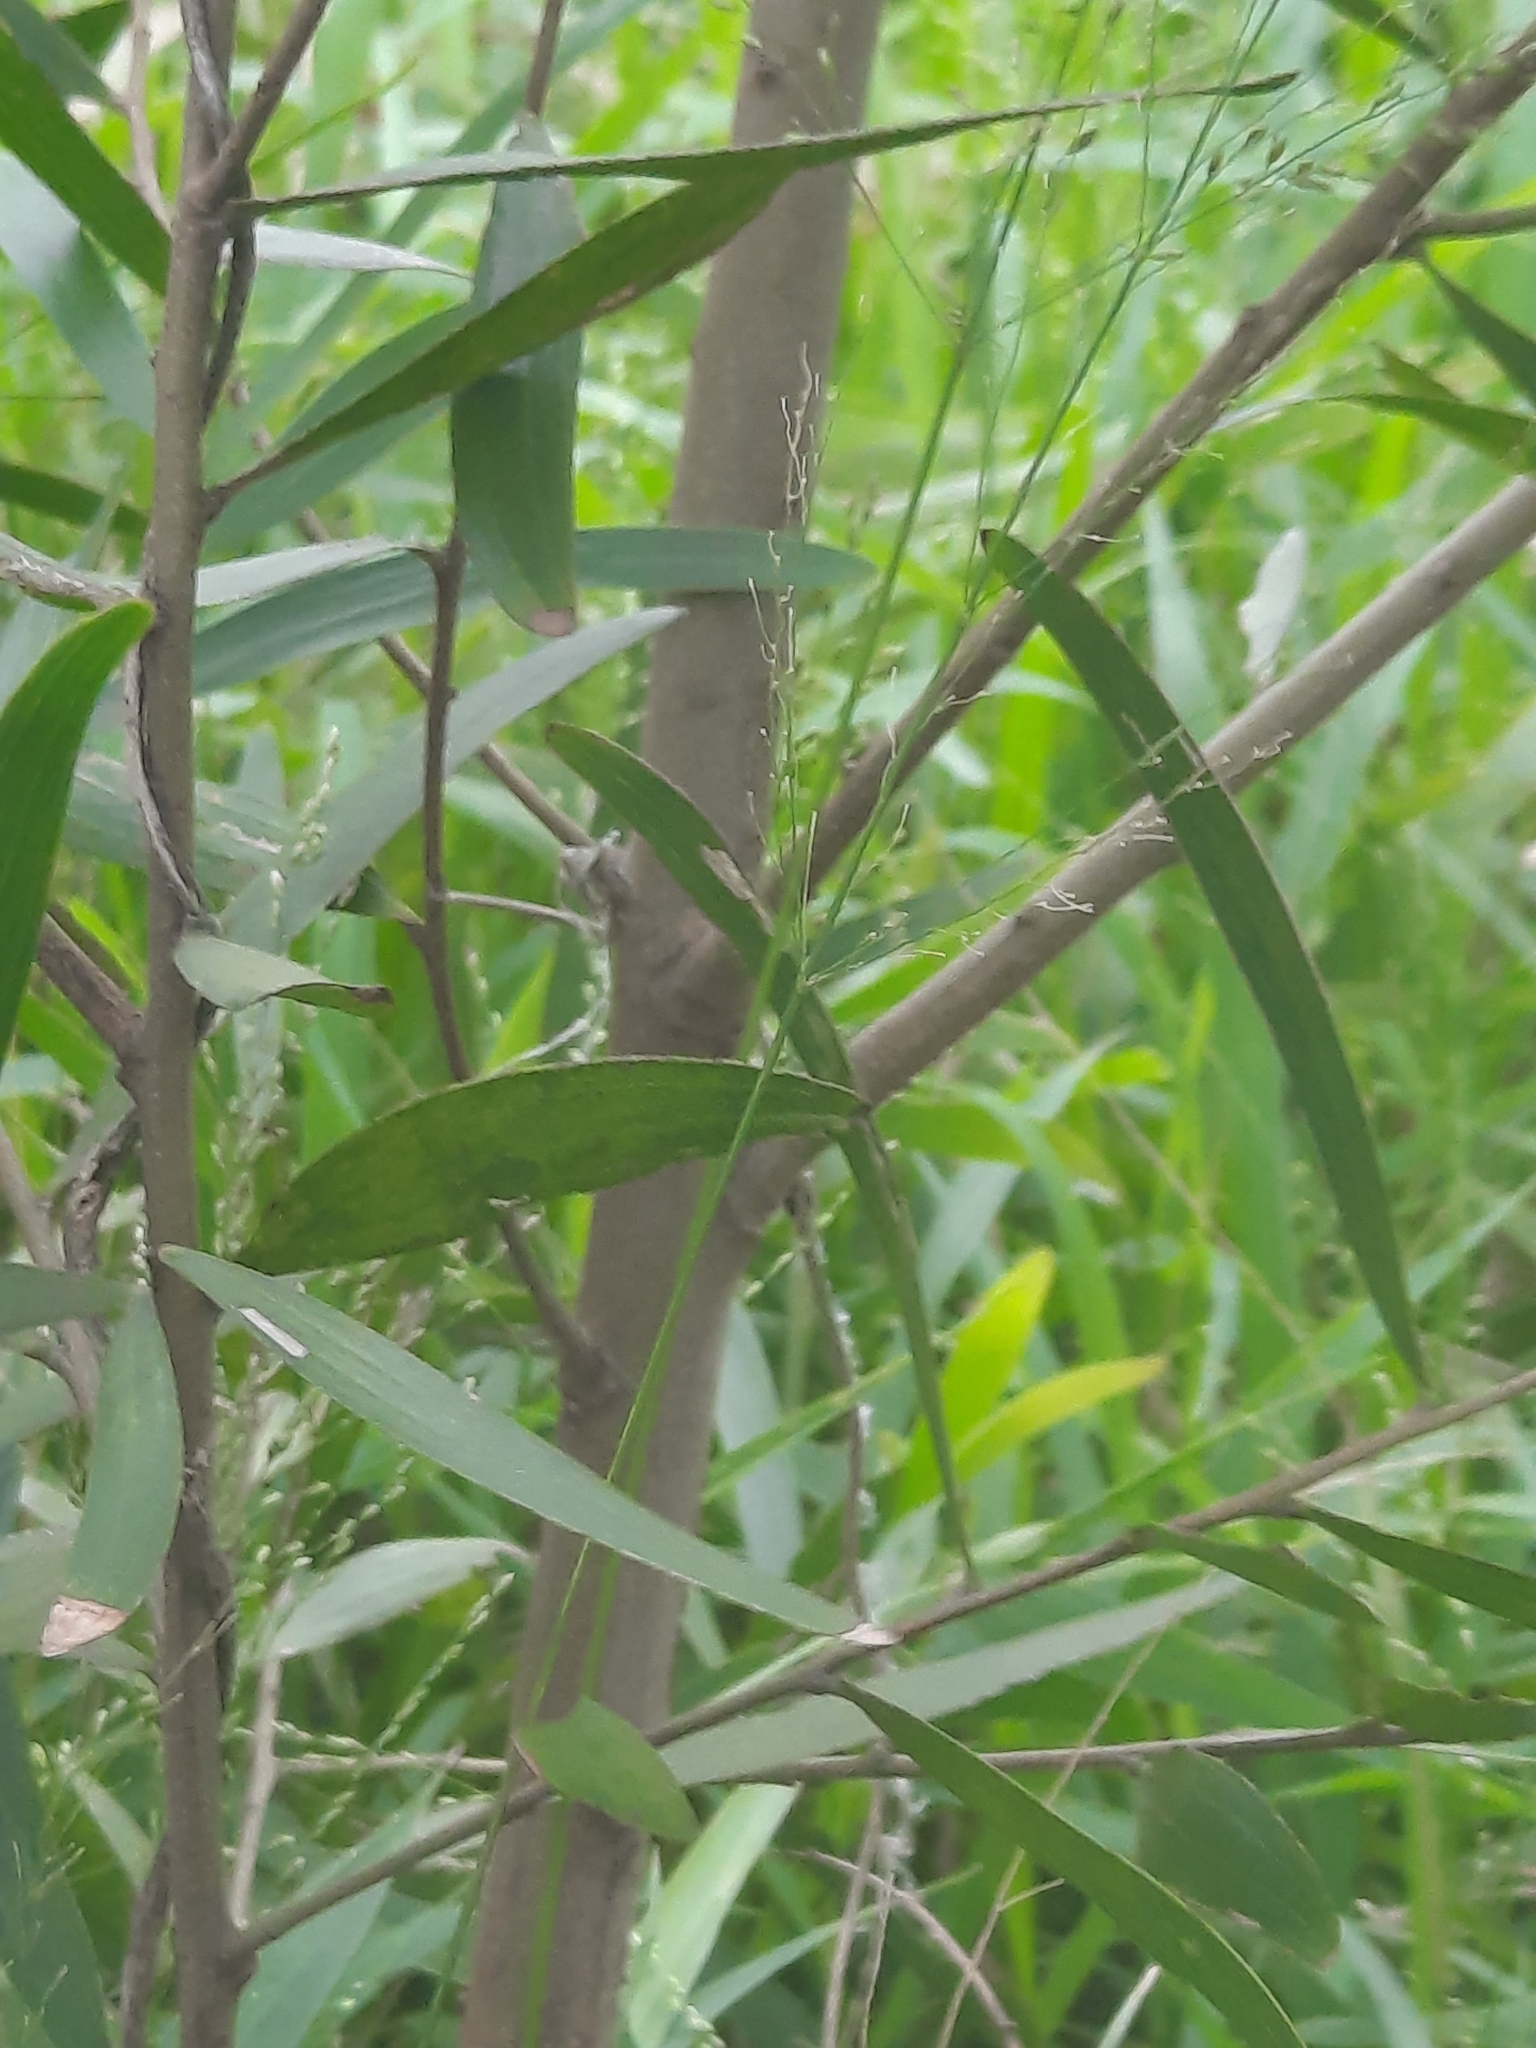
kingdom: Plantae
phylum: Tracheophyta
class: Magnoliopsida
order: Fabales
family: Fabaceae
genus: Acacia
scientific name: Acacia confusa
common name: Formosan koa
